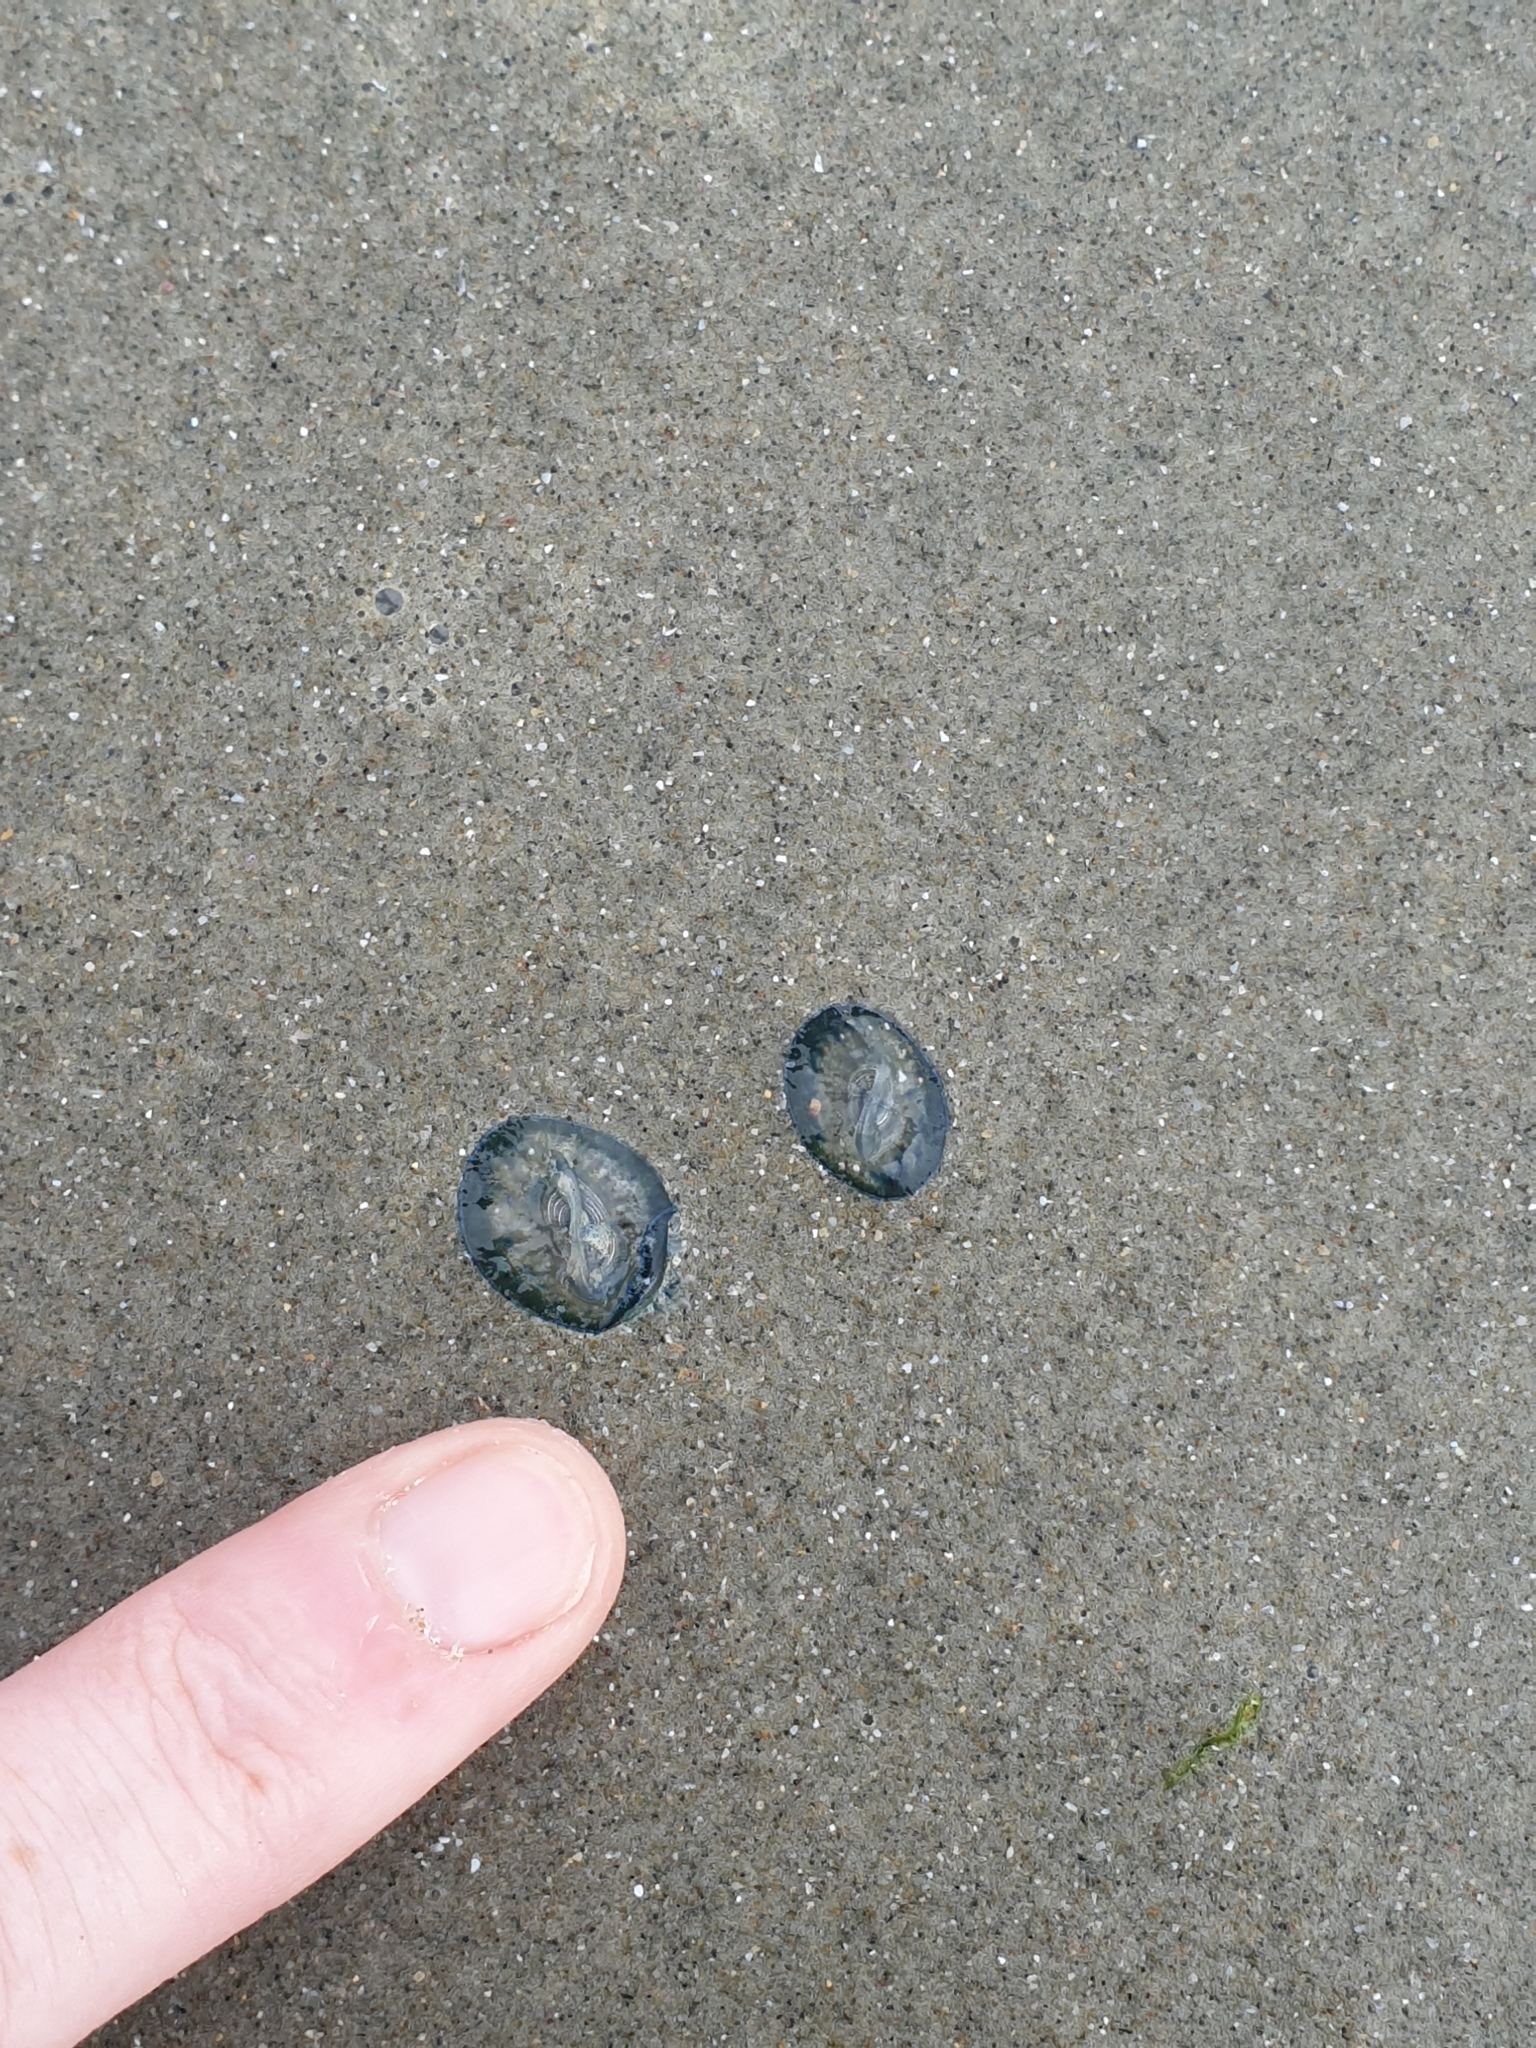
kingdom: Animalia
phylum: Cnidaria
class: Hydrozoa
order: Anthoathecata
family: Porpitidae
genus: Velella
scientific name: Velella velella
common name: By-the-wind-sailor
